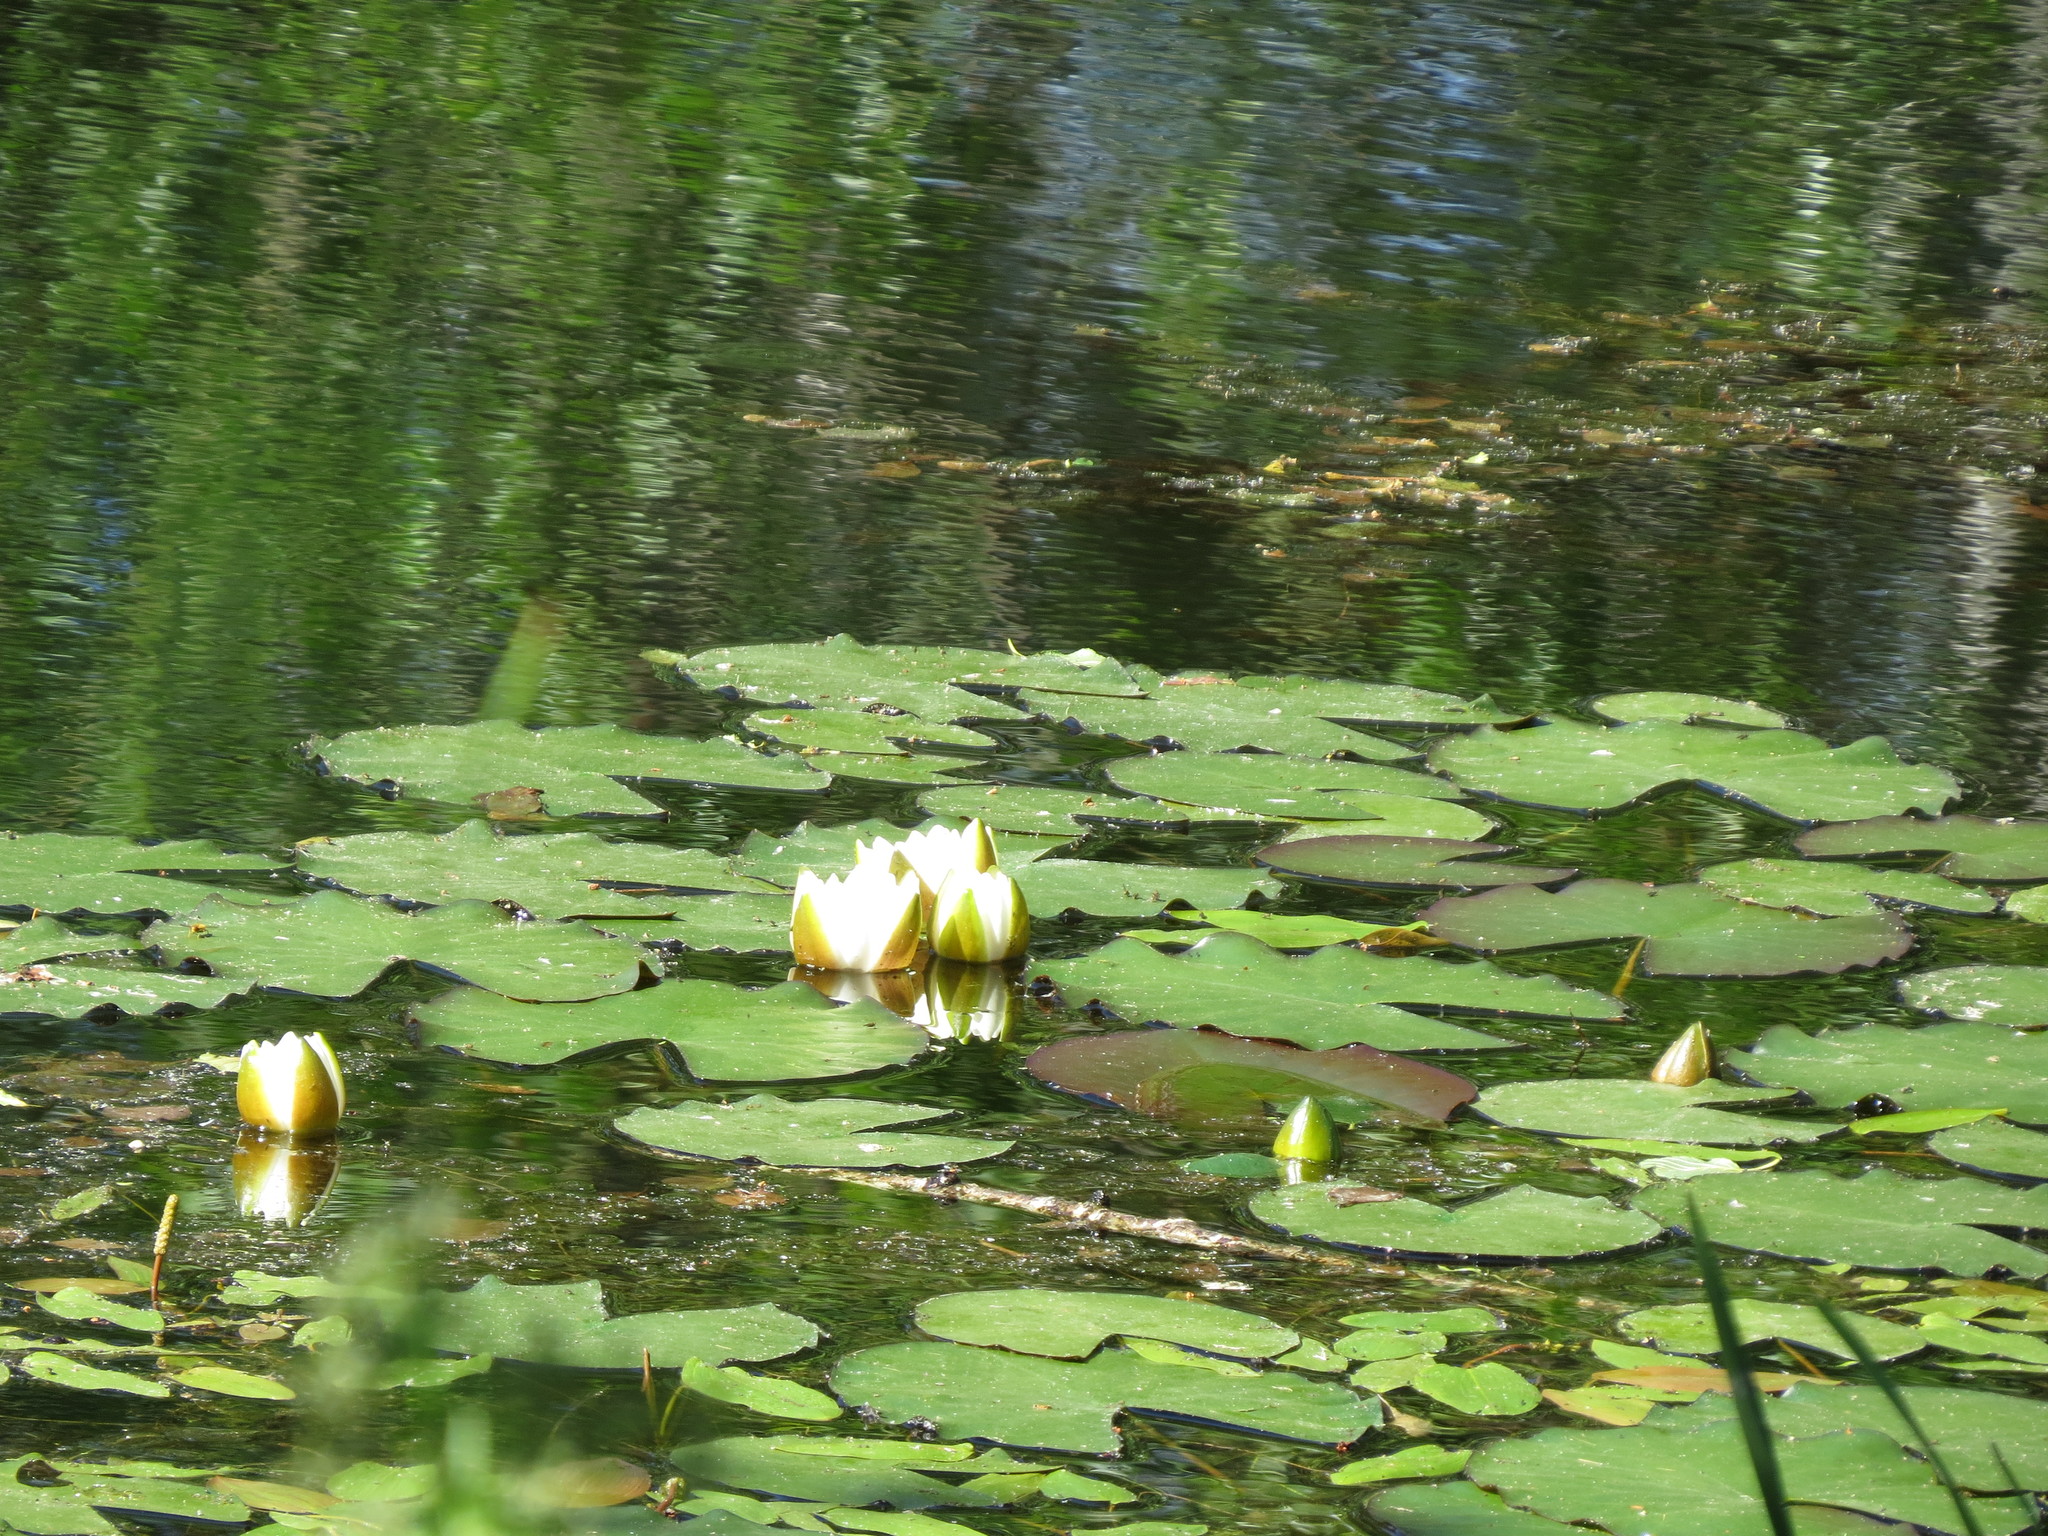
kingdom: Plantae
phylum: Tracheophyta
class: Magnoliopsida
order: Nymphaeales
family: Nymphaeaceae
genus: Nymphaea
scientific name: Nymphaea candida
